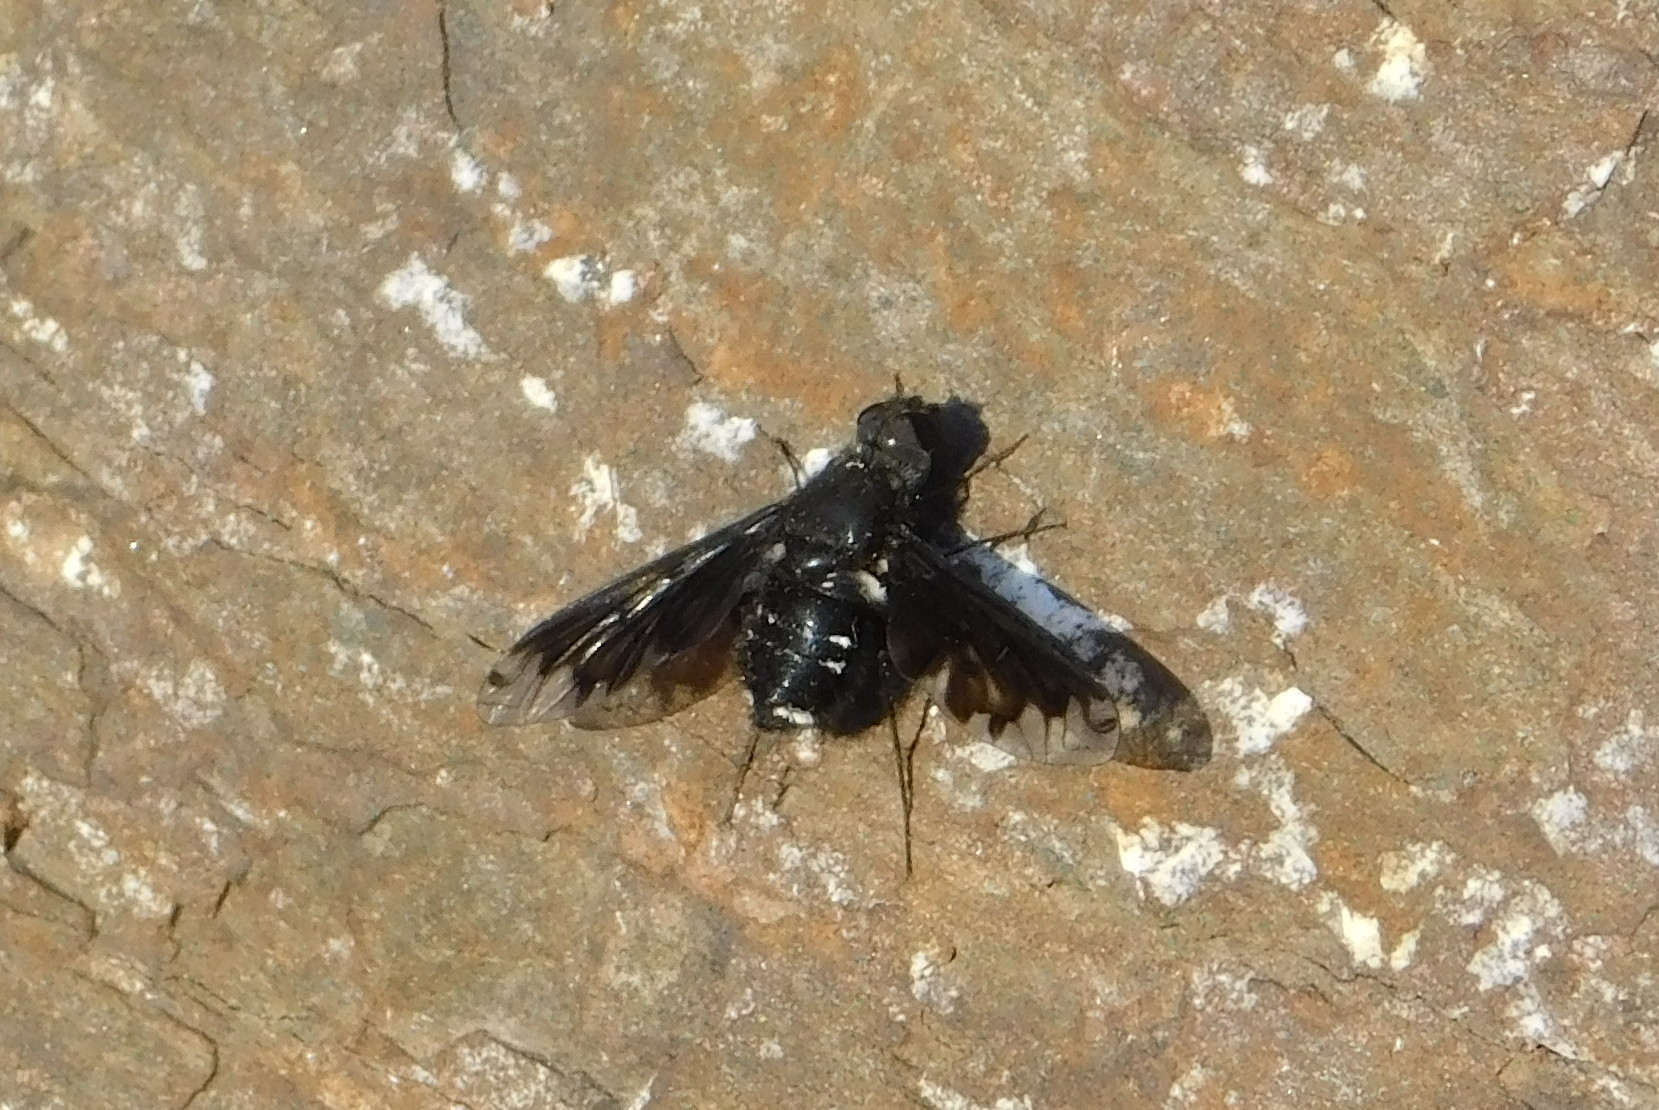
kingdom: Animalia
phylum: Arthropoda
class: Insecta
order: Diptera
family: Bombyliidae
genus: Anthrax
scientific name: Anthrax anthrax
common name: Anthracite bee-fly
